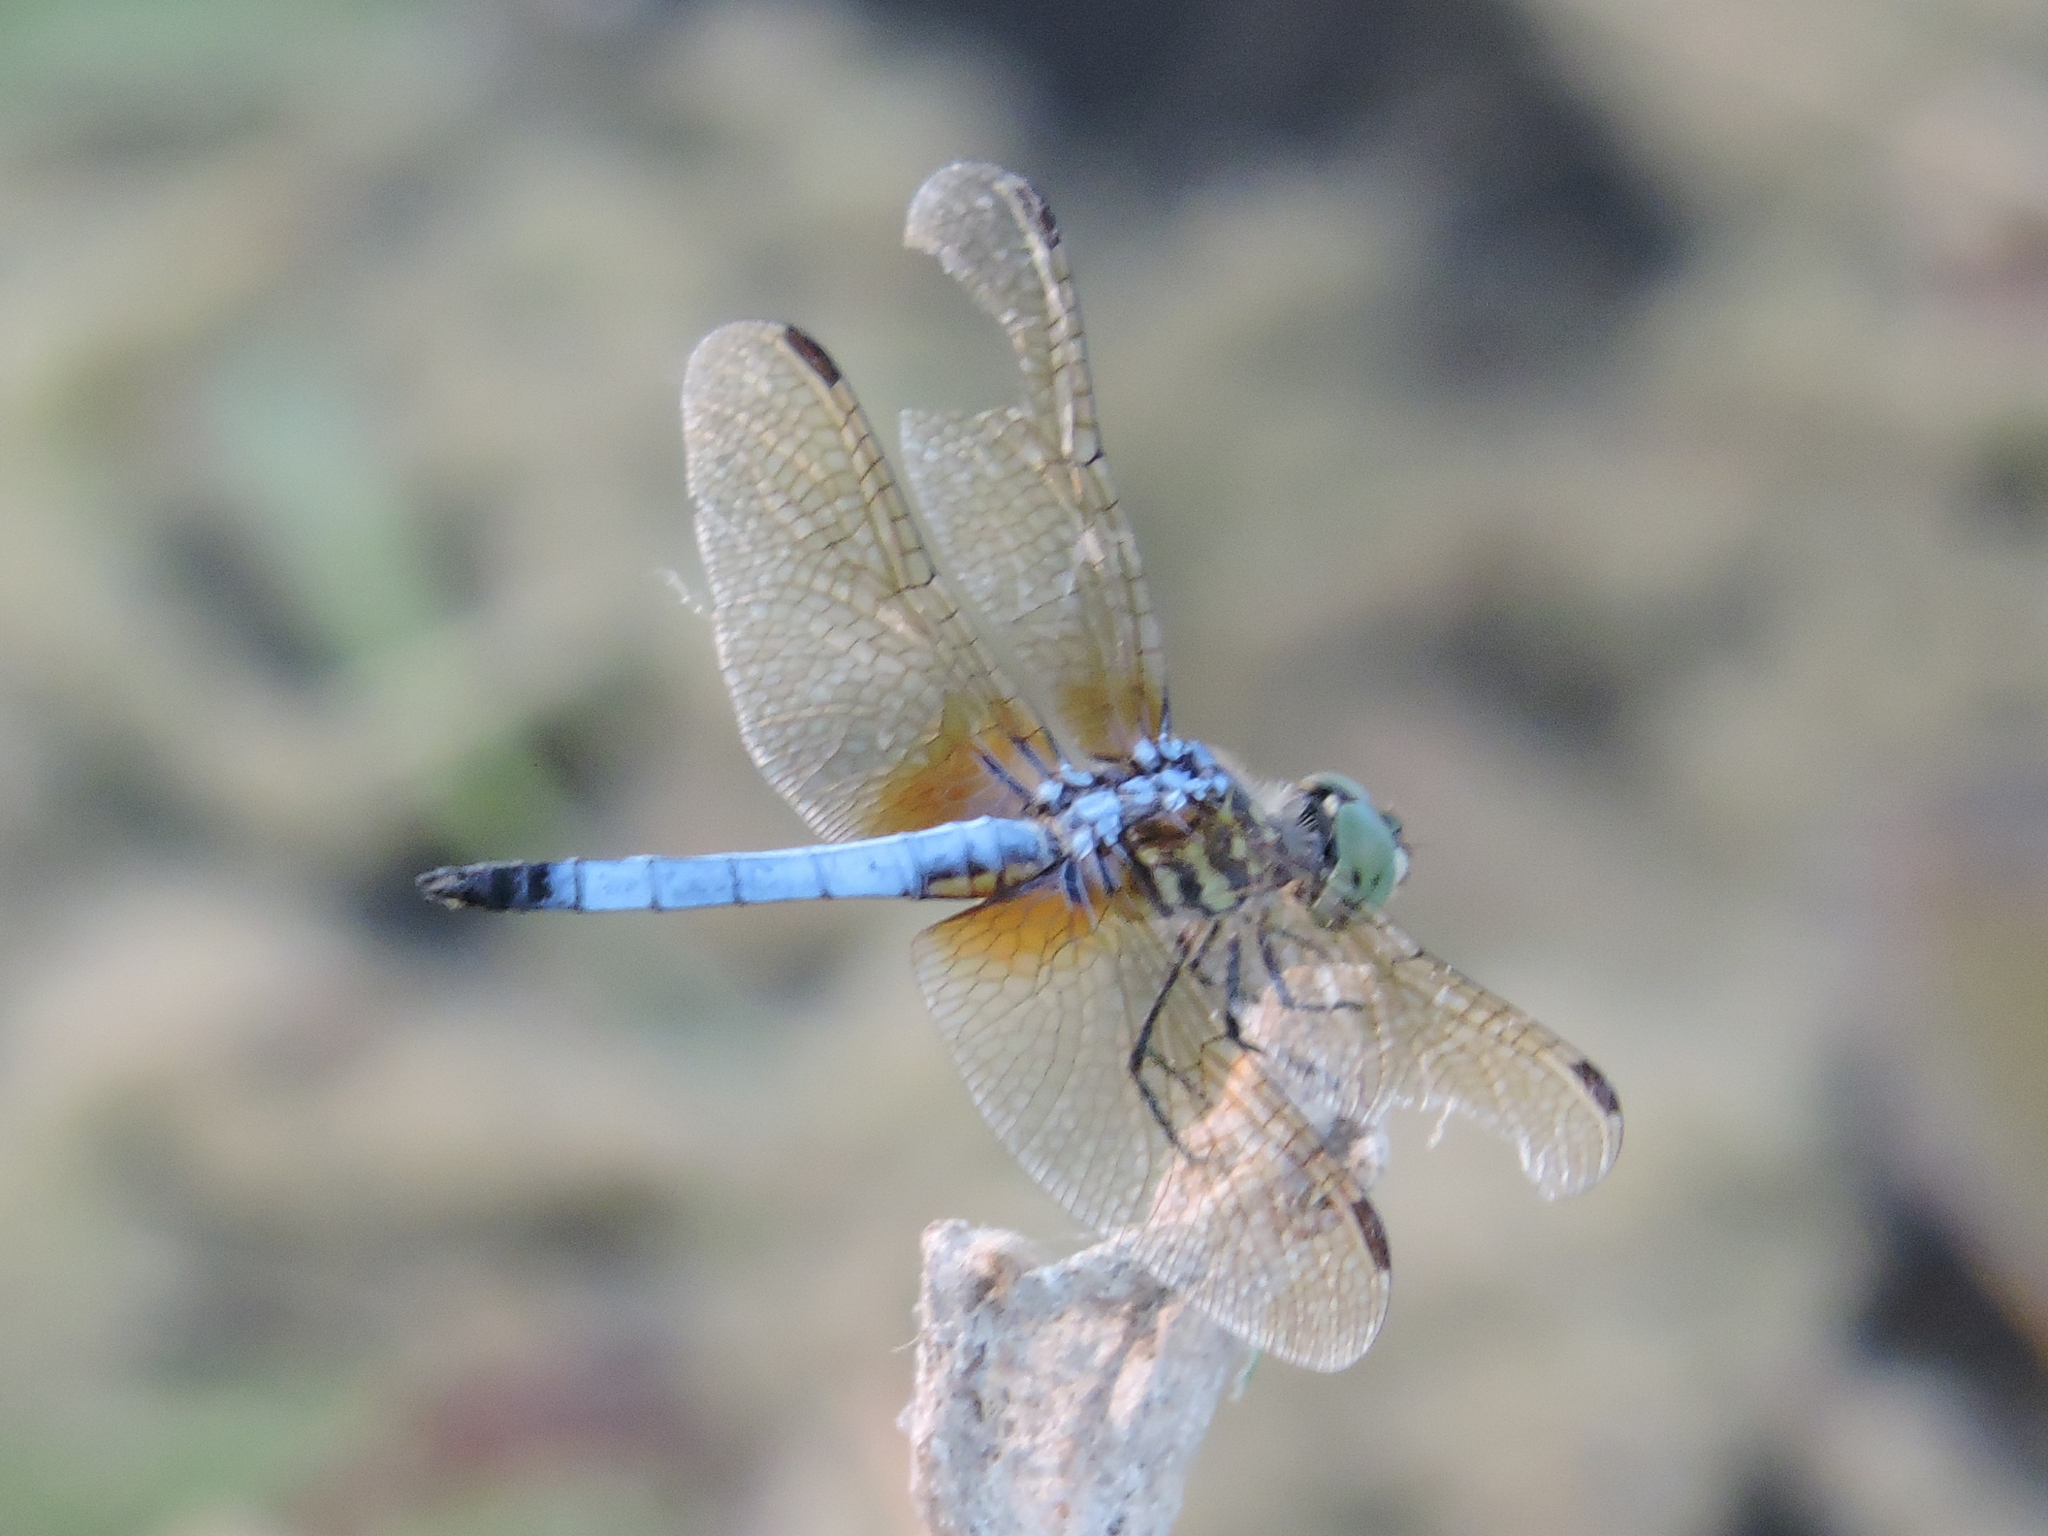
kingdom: Animalia
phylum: Arthropoda
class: Insecta
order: Odonata
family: Libellulidae
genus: Pachydiplax
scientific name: Pachydiplax longipennis
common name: Blue dasher
